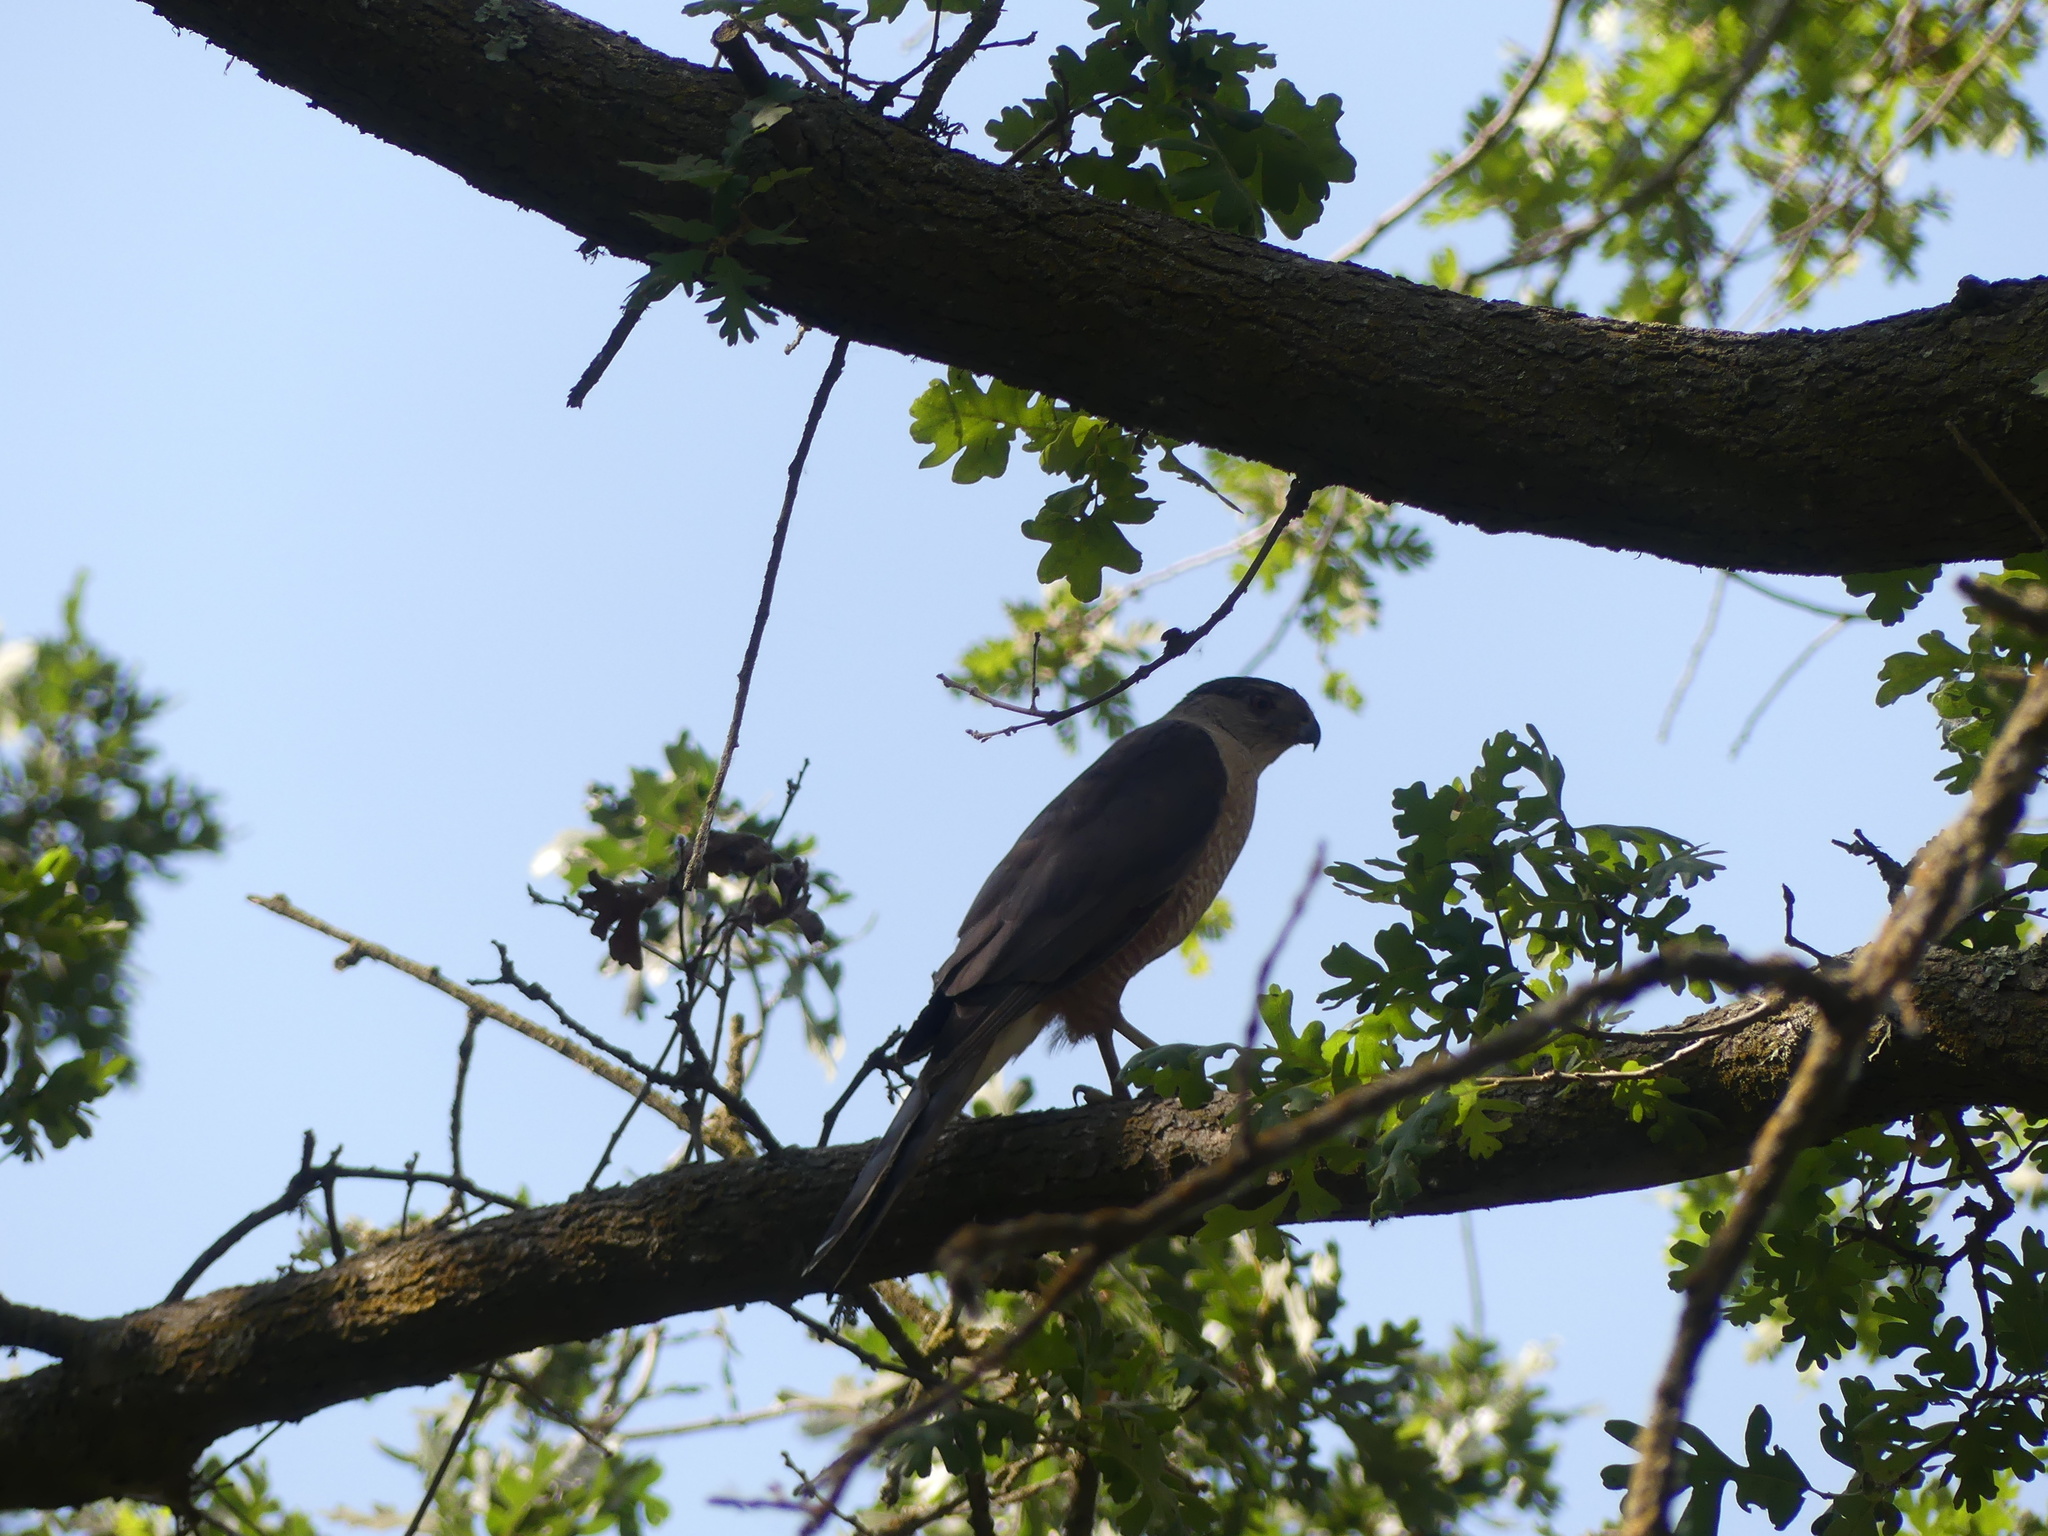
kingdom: Animalia
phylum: Chordata
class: Aves
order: Accipitriformes
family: Accipitridae
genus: Accipiter
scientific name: Accipiter cooperii
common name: Cooper's hawk
